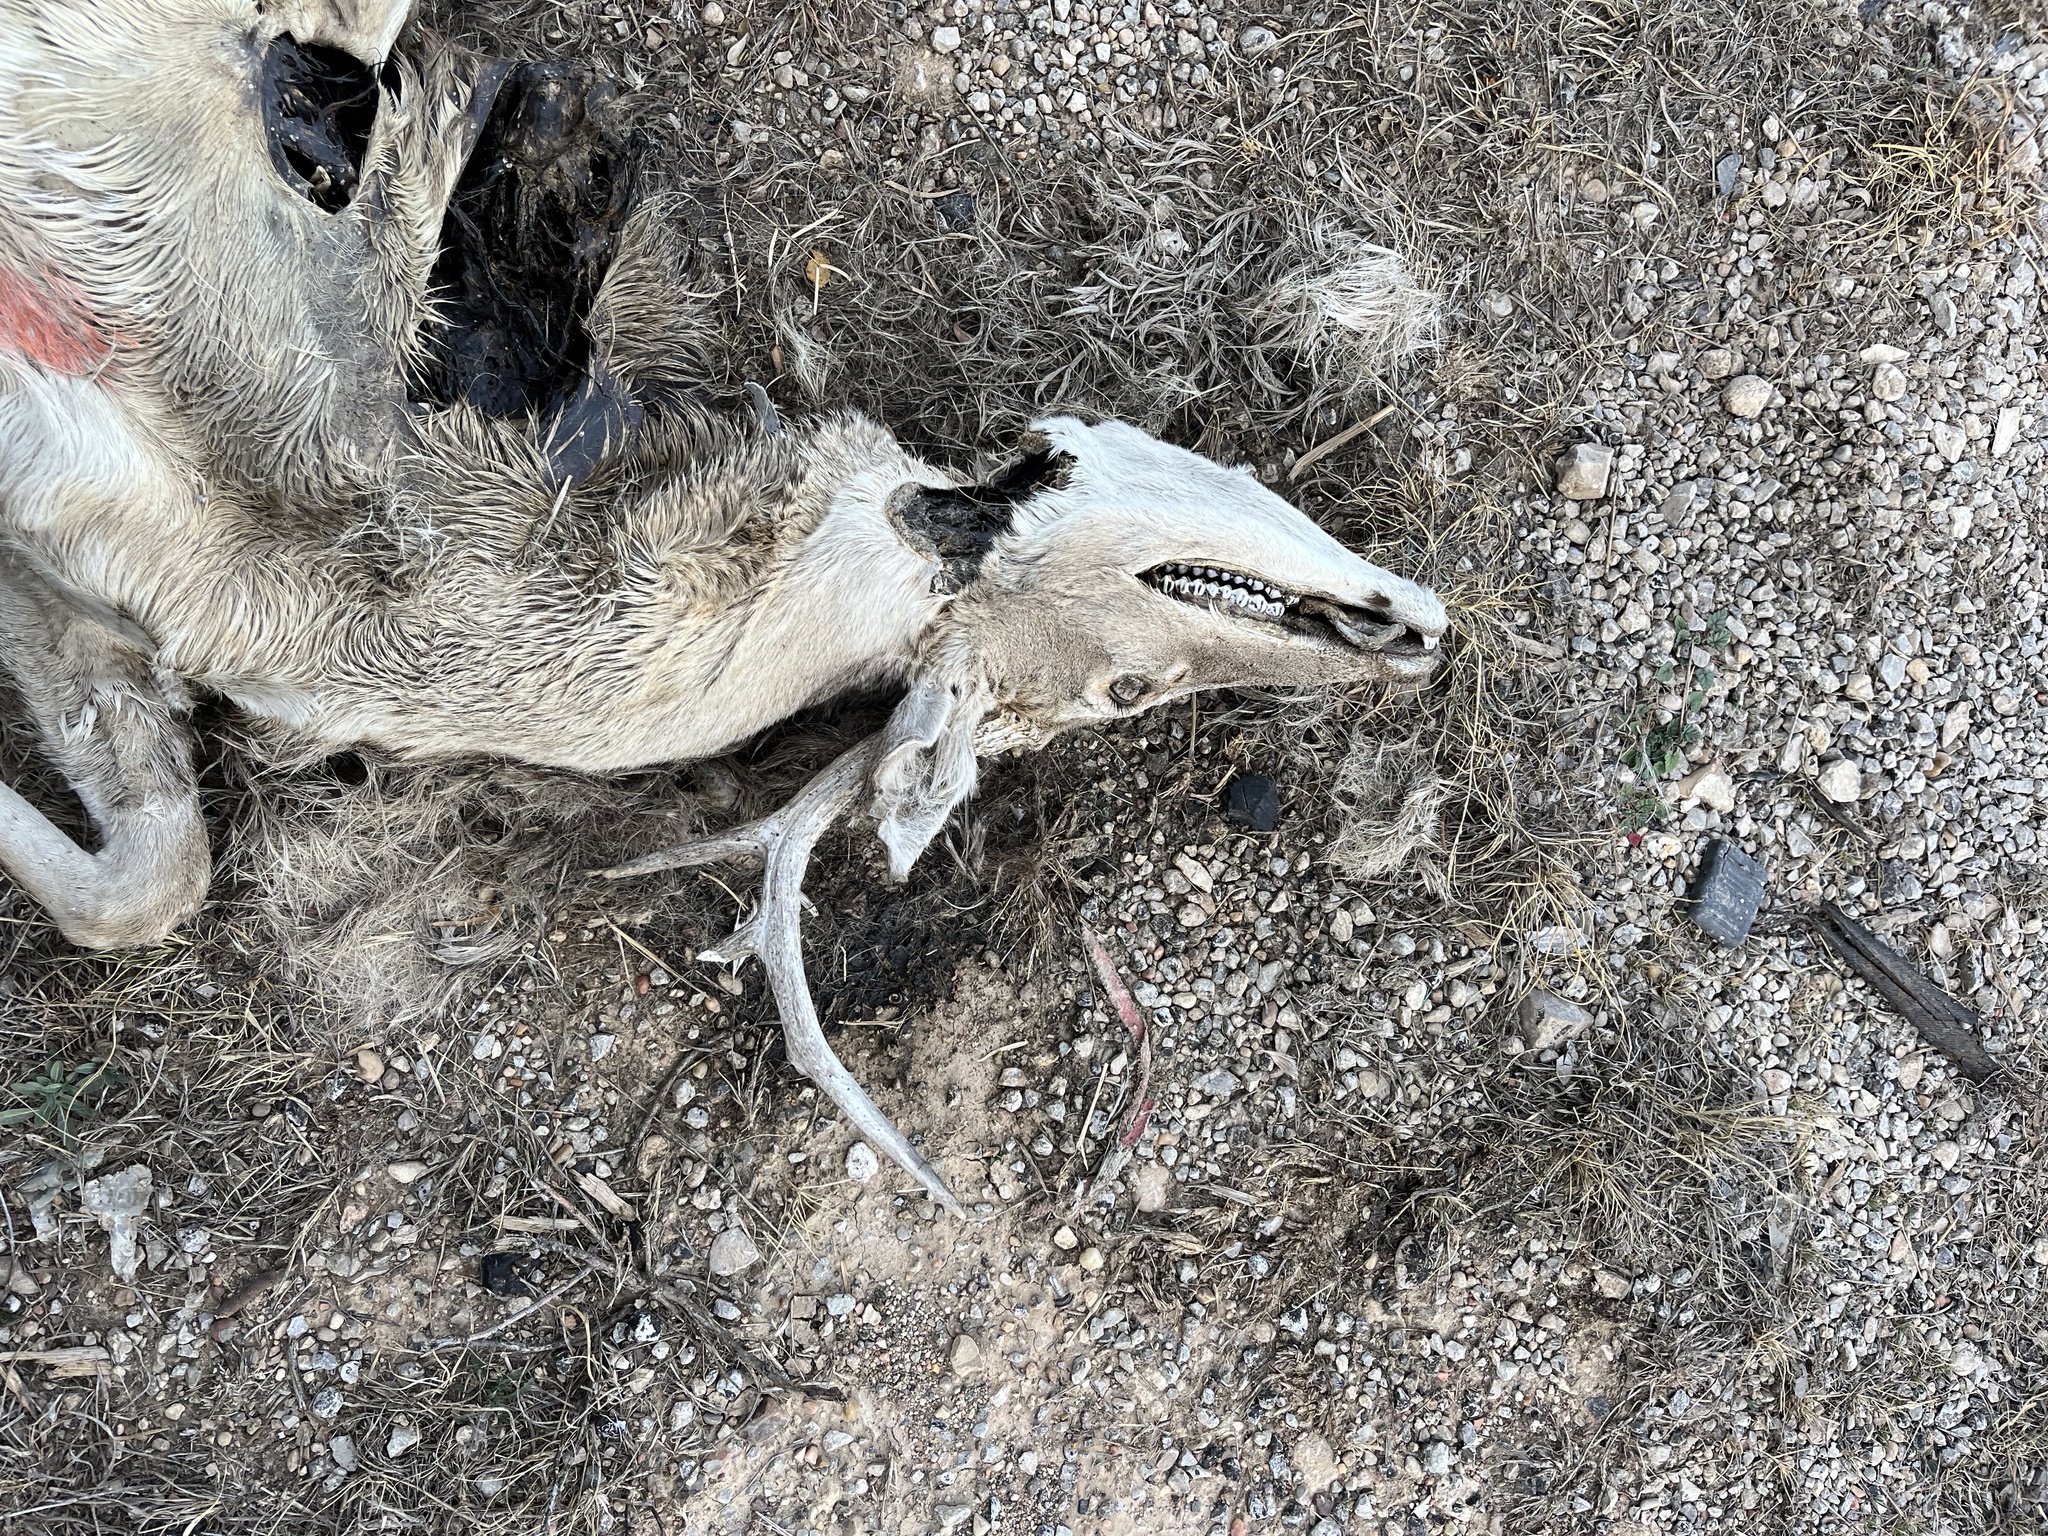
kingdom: Animalia
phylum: Chordata
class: Mammalia
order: Artiodactyla
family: Cervidae
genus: Odocoileus
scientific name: Odocoileus virginianus
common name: White-tailed deer
